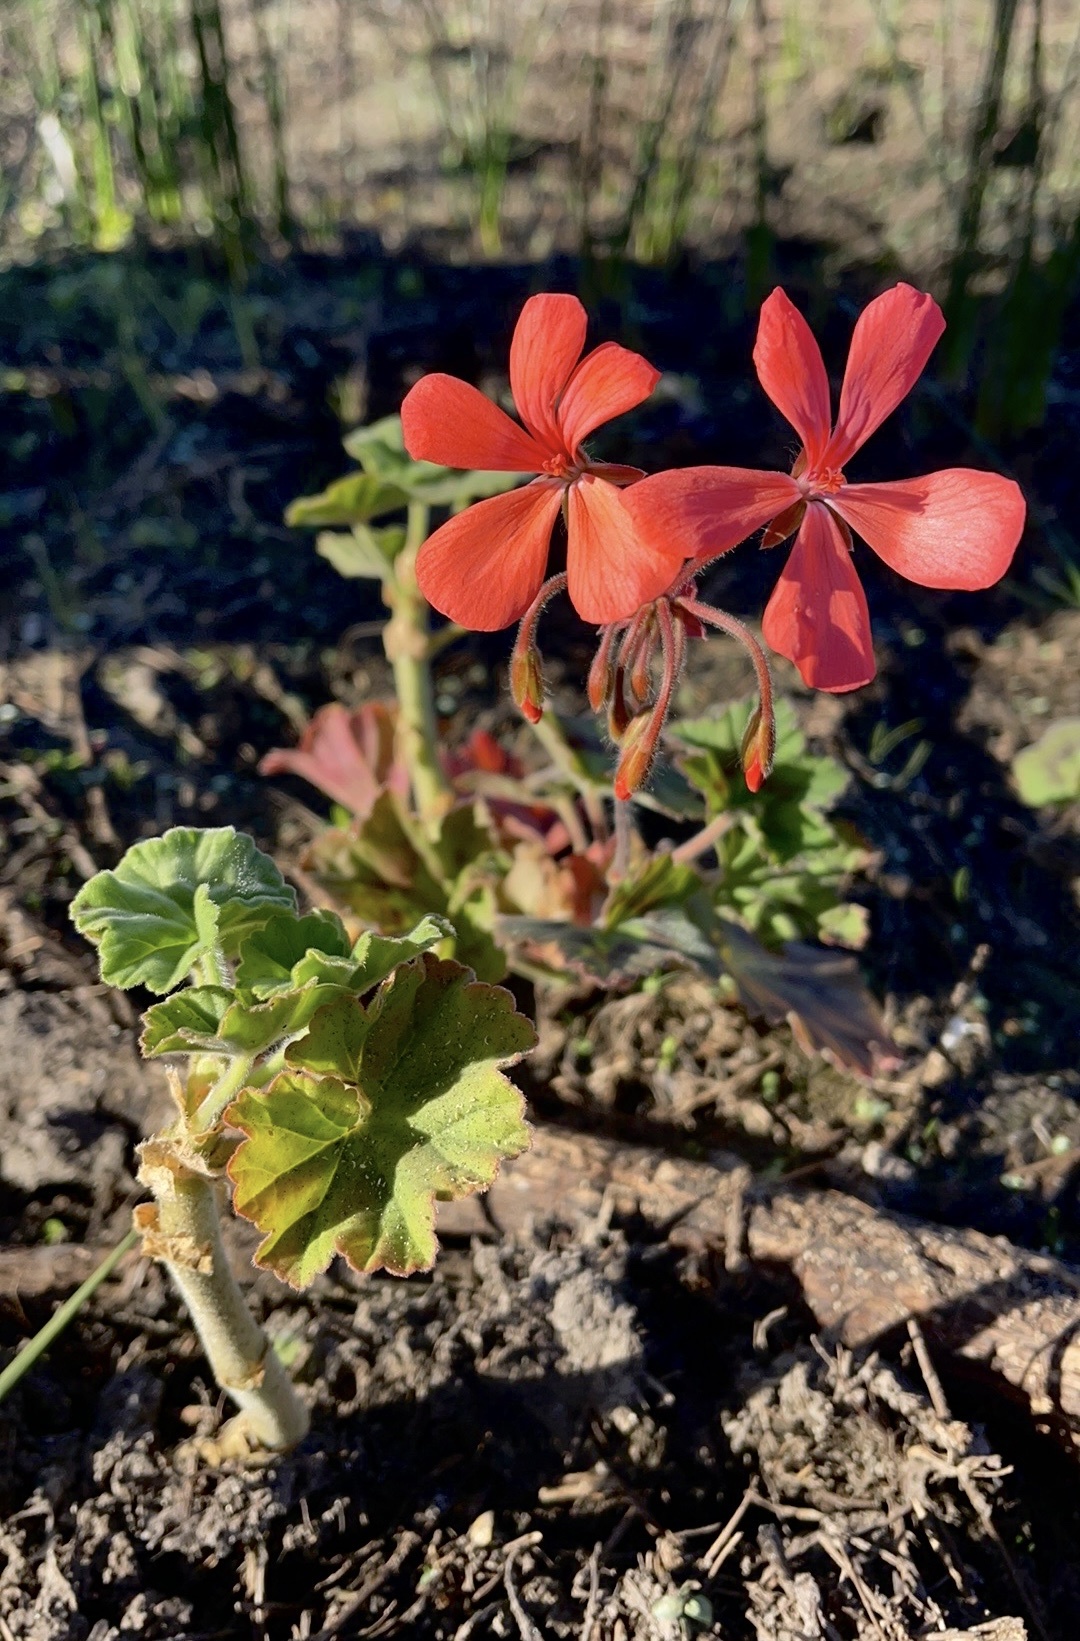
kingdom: Plantae
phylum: Tracheophyta
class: Magnoliopsida
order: Geraniales
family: Geraniaceae
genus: Pelargonium
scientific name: Pelargonium hybridum
